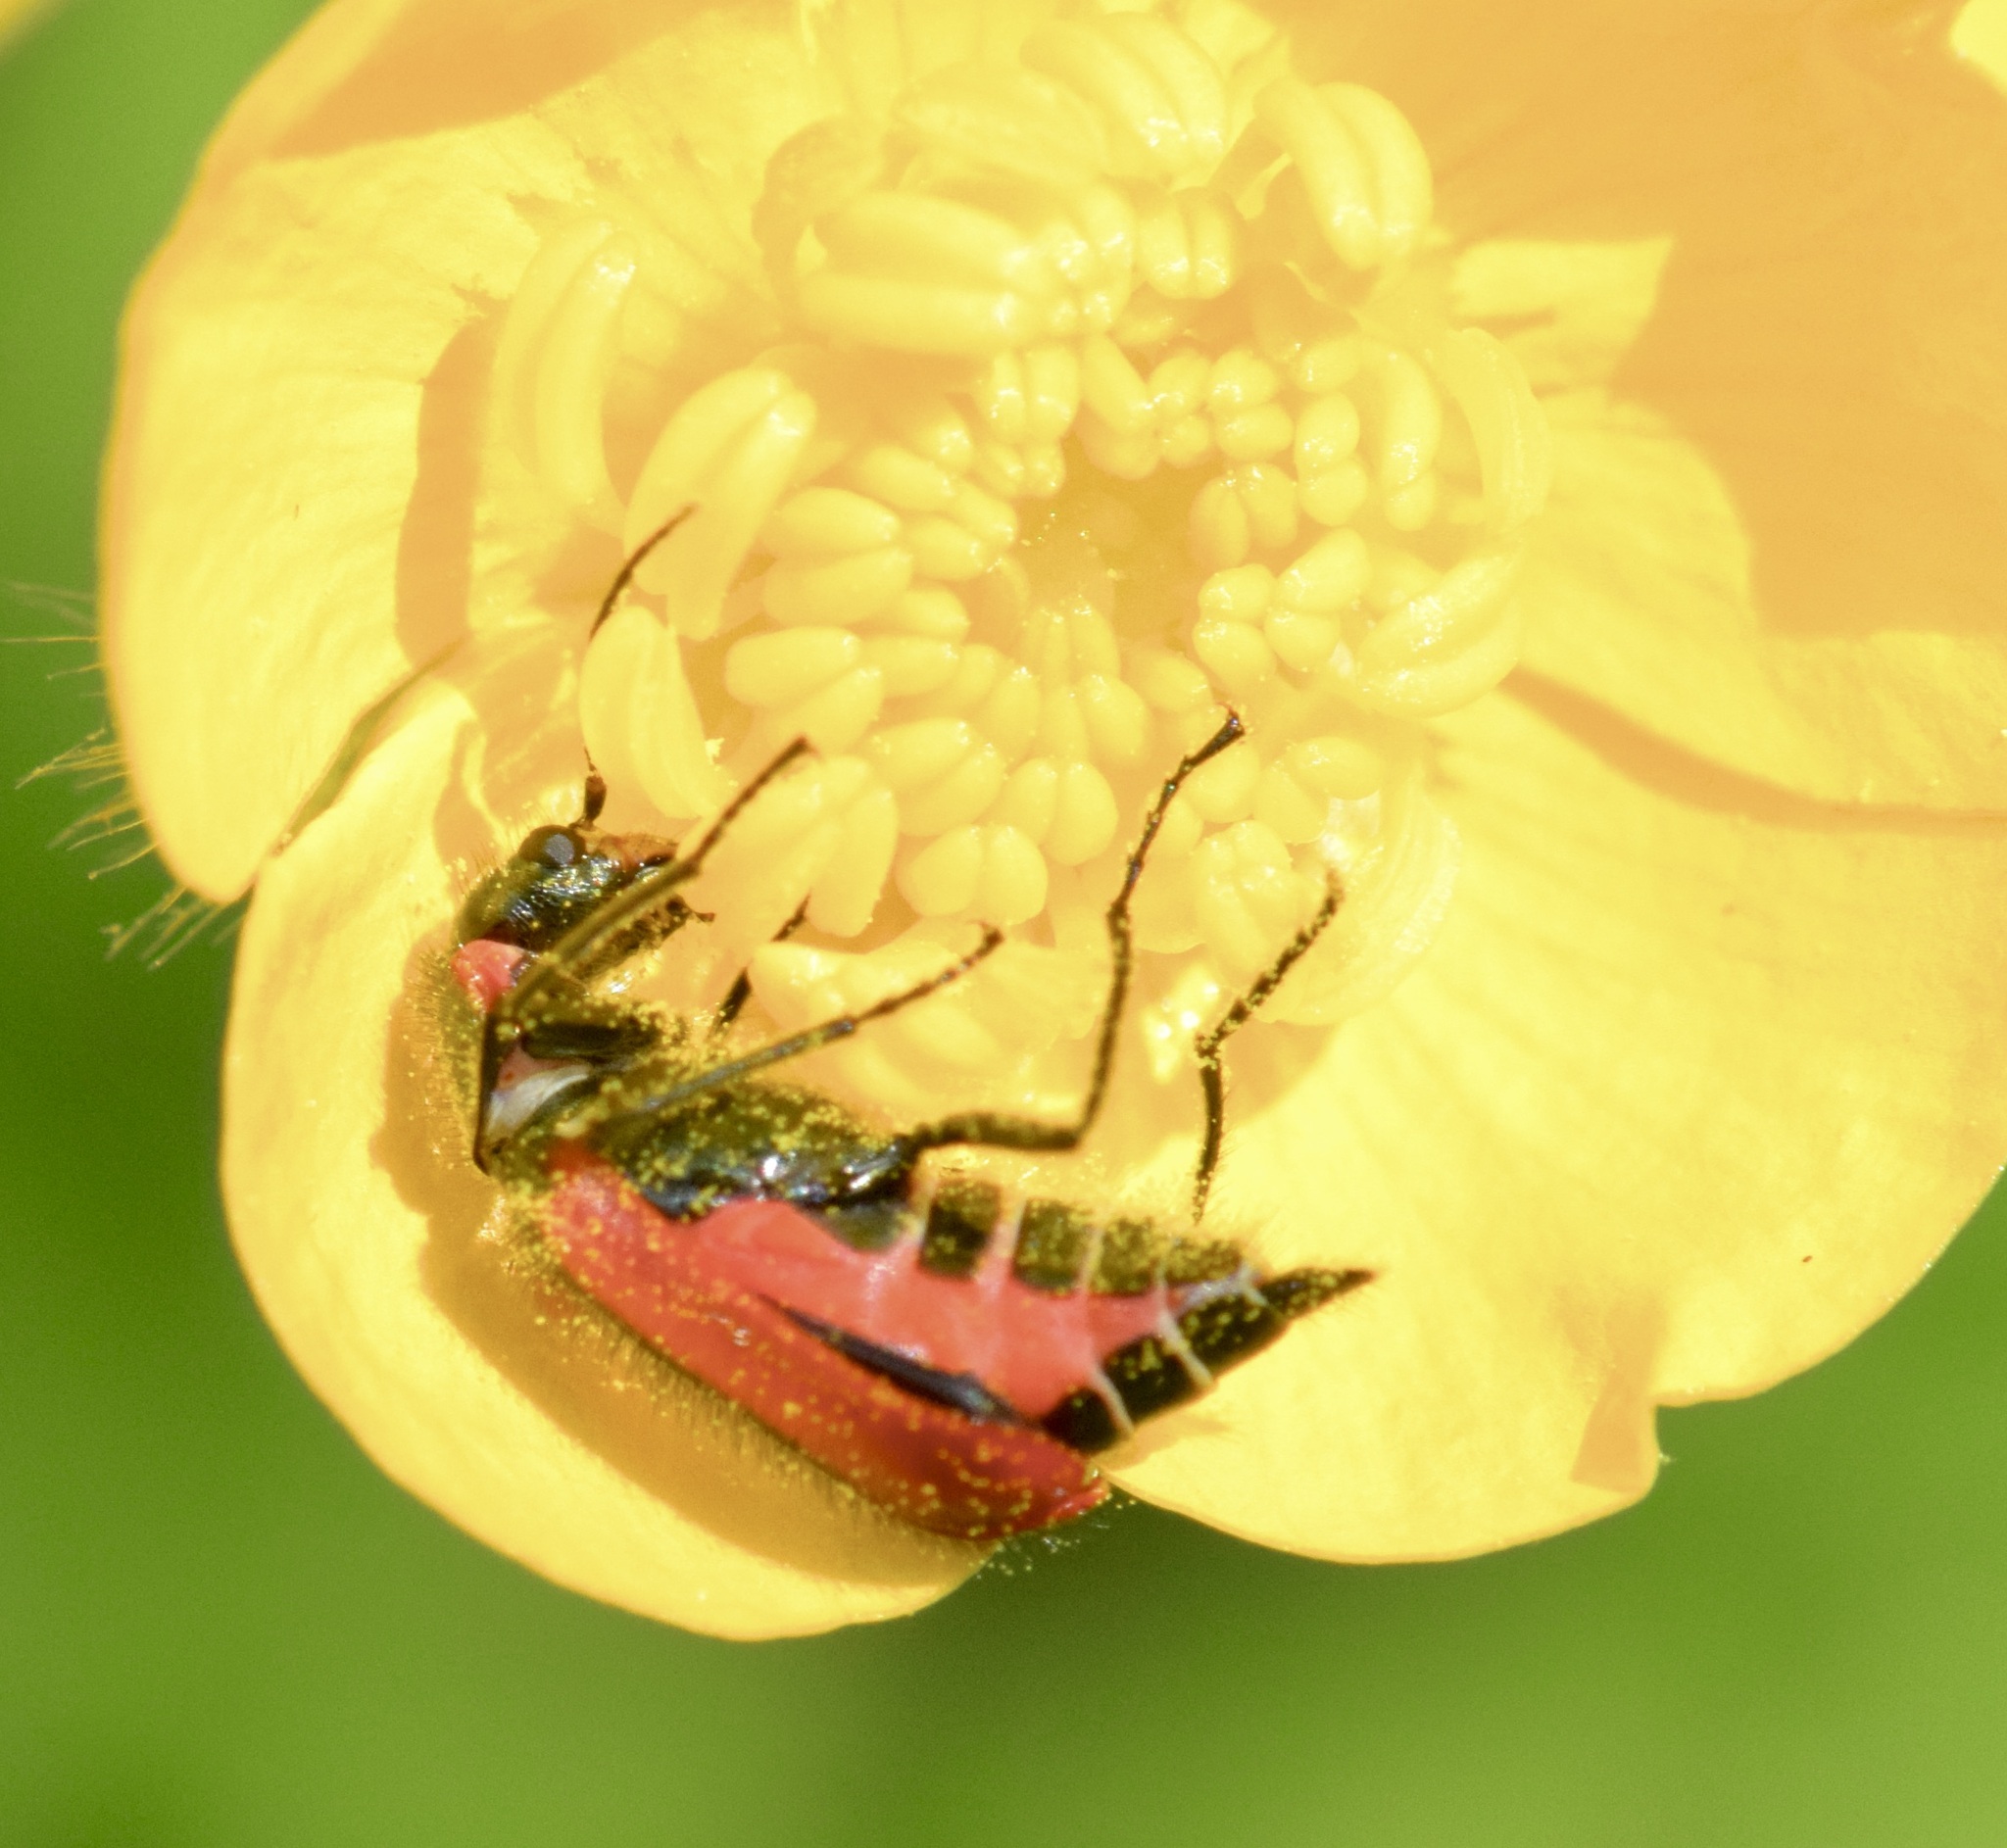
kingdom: Animalia
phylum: Arthropoda
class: Insecta
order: Coleoptera
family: Melyridae
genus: Malachius
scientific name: Malachius aeneus
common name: Scarlet malachite beetle
